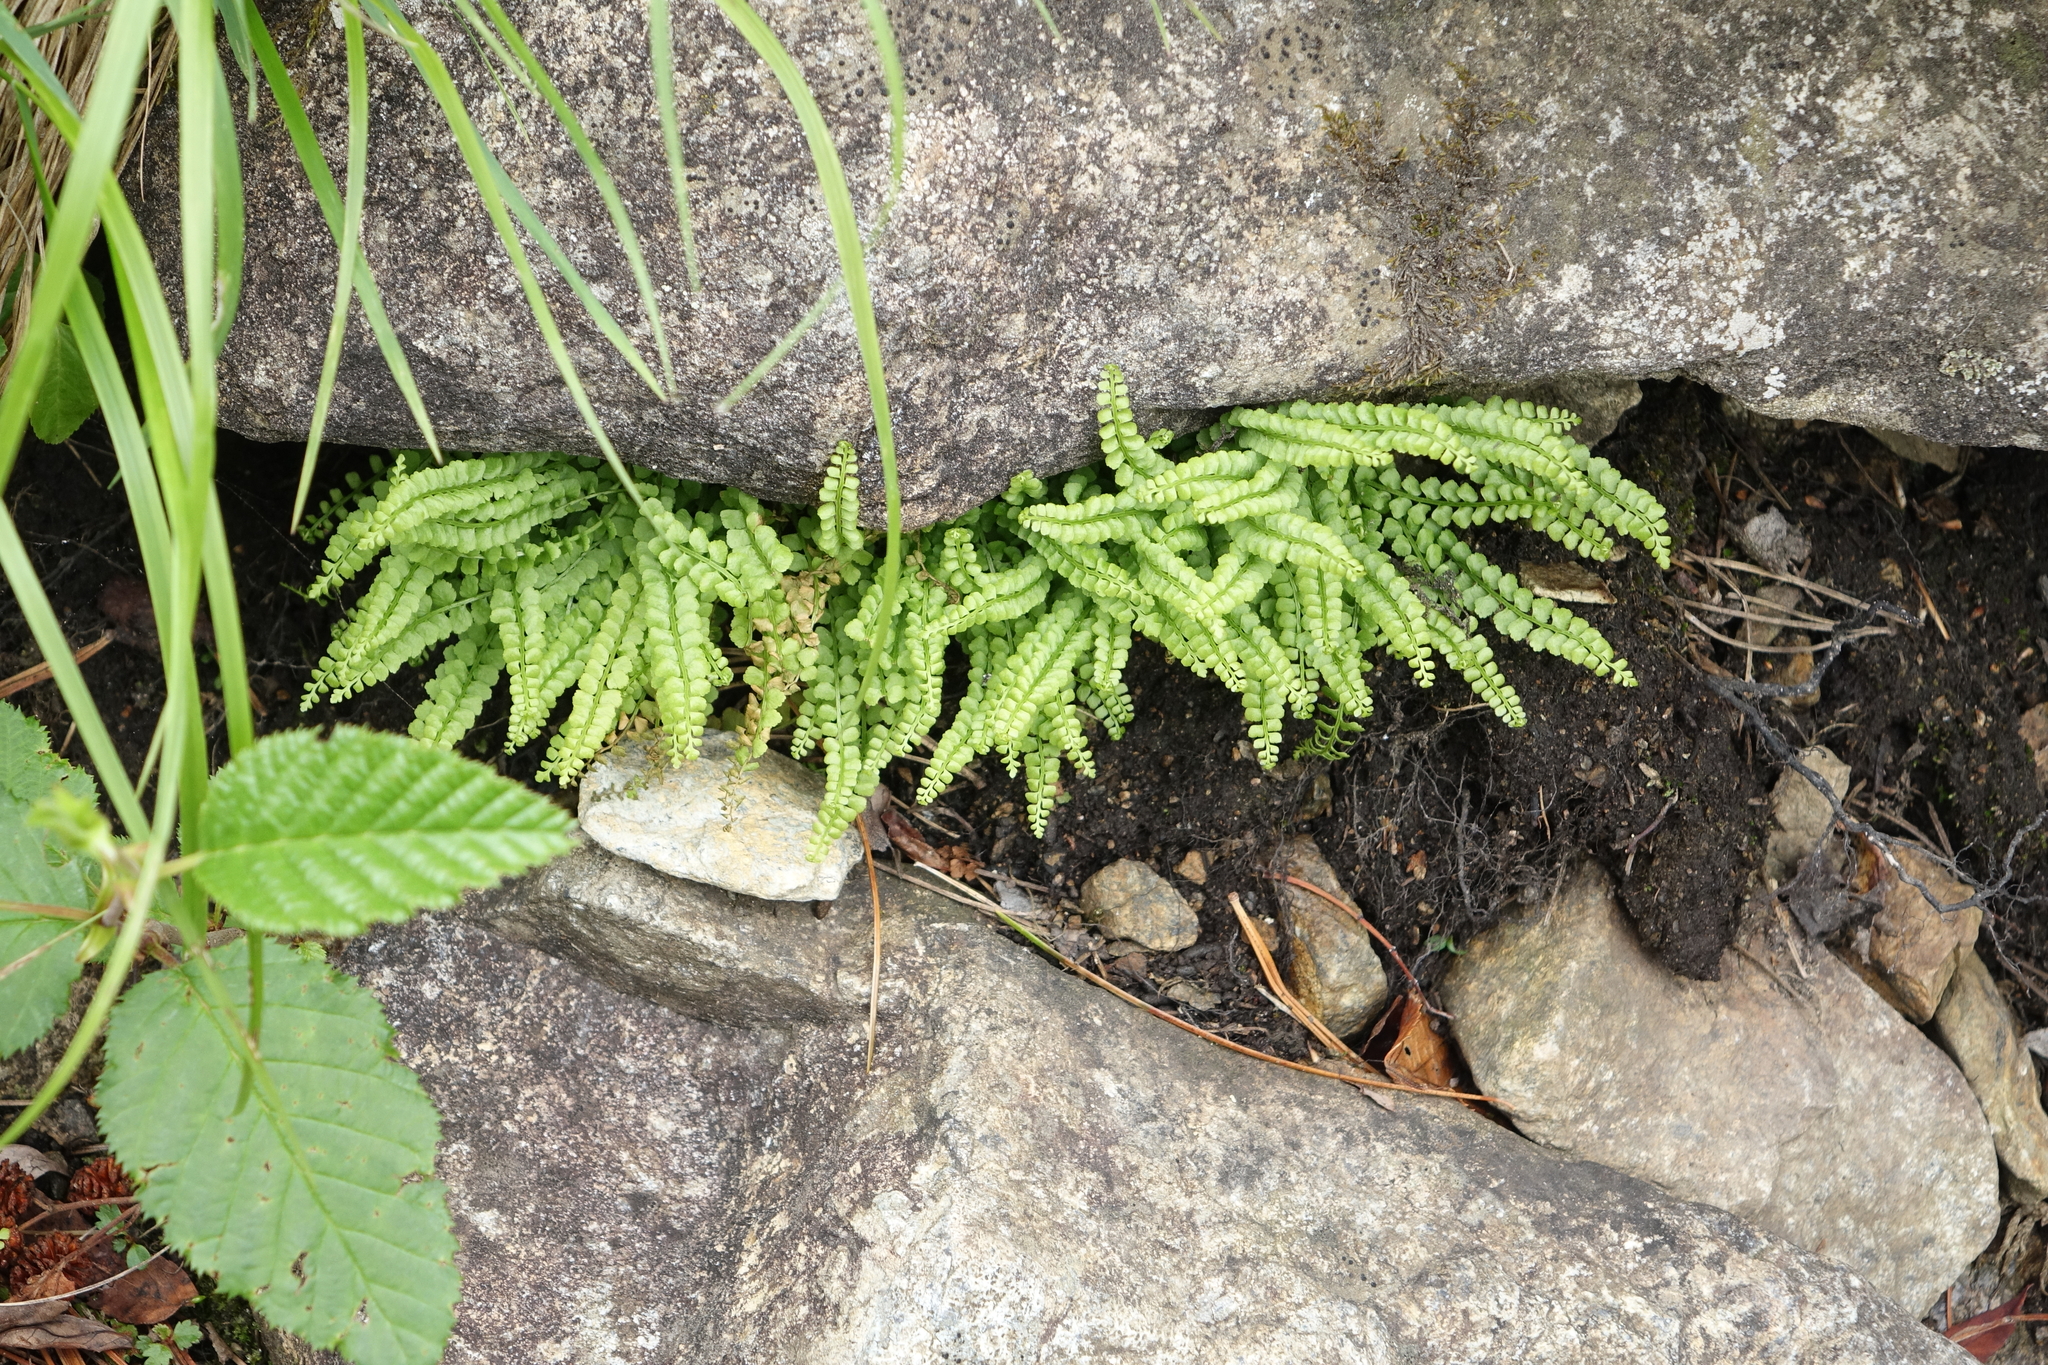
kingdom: Plantae
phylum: Tracheophyta
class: Magnoliopsida
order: Fagales
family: Betulaceae
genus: Alnus
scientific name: Alnus alnobetula
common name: Green alder
